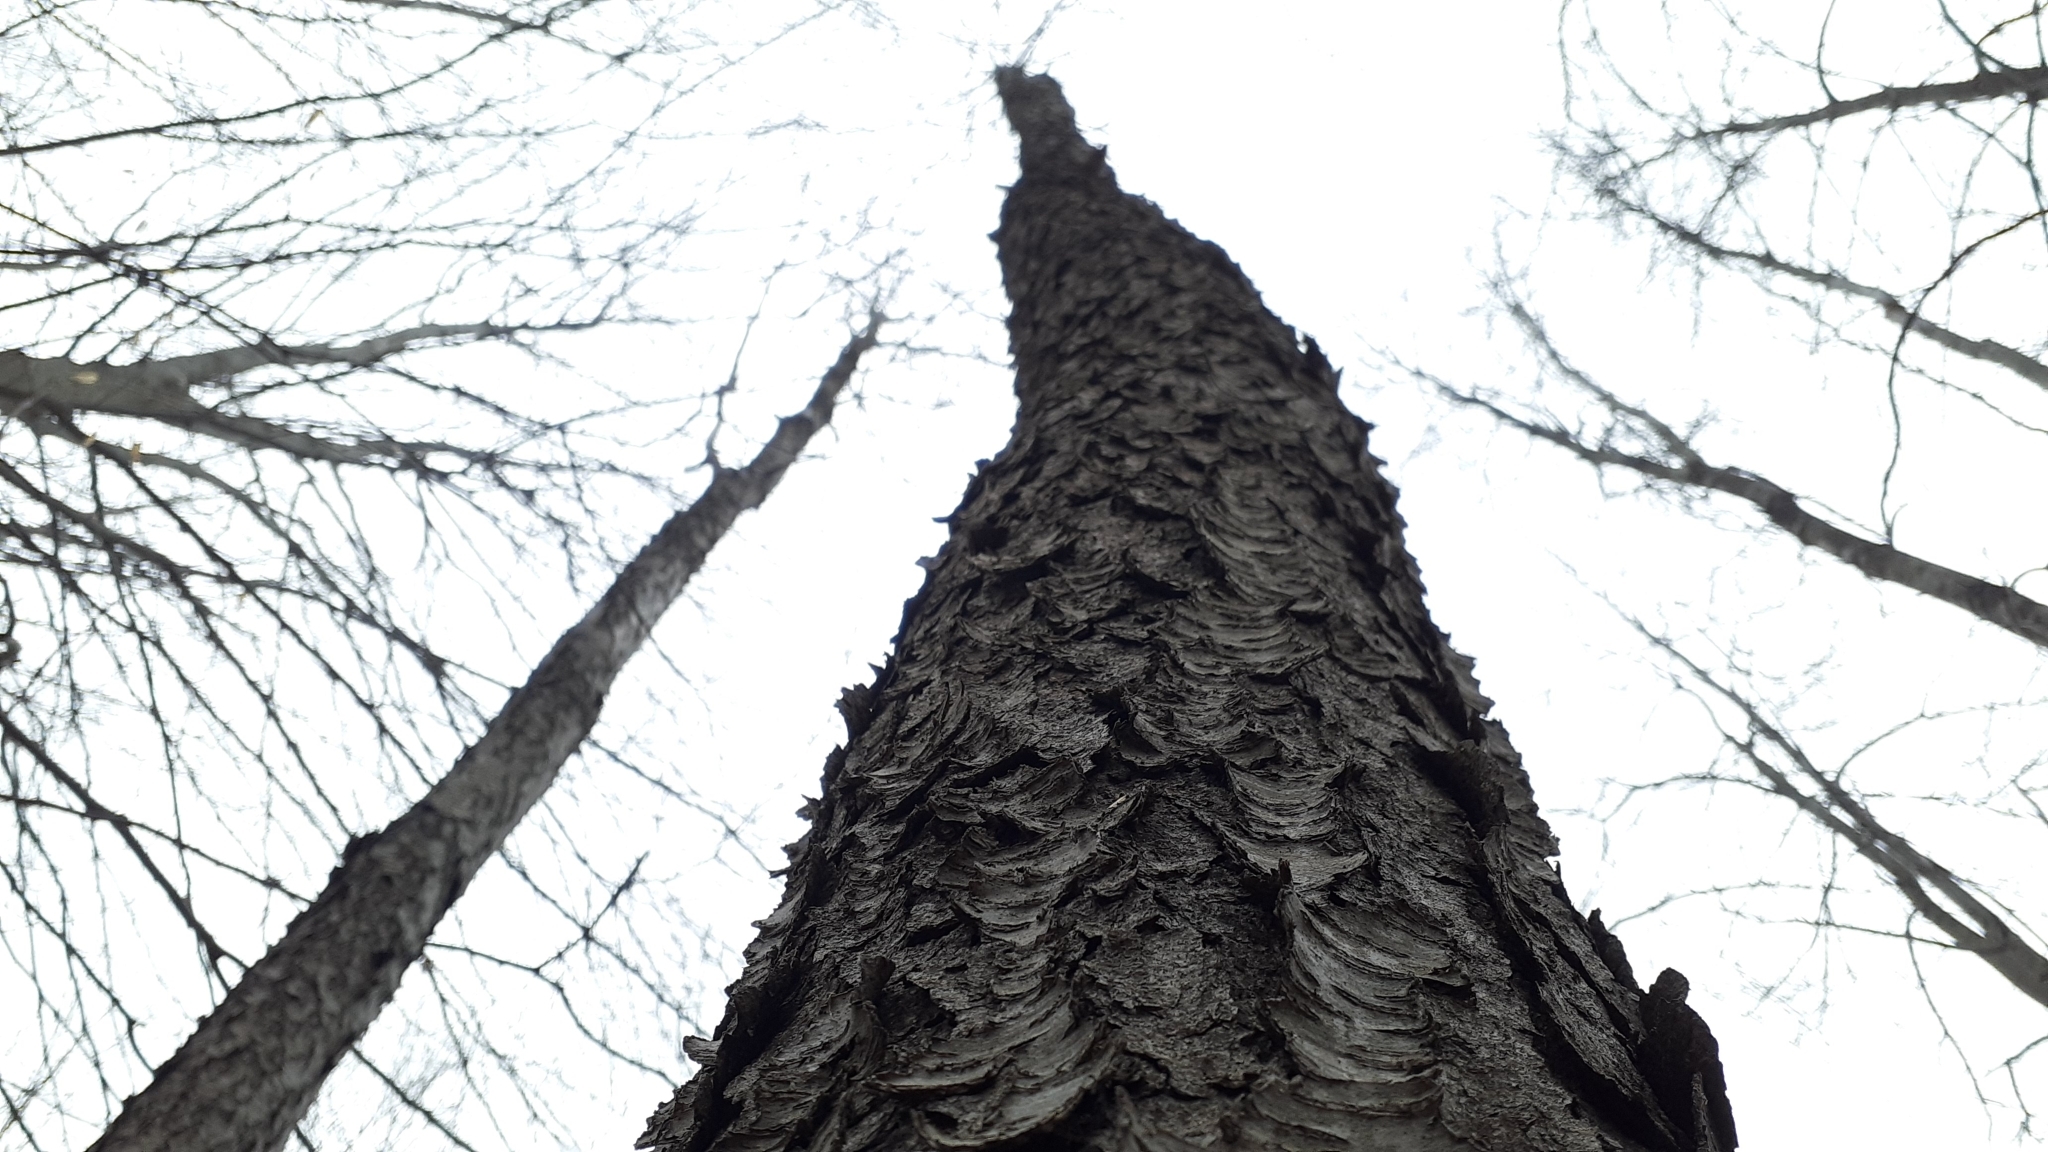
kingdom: Plantae
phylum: Tracheophyta
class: Magnoliopsida
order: Rosales
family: Rosaceae
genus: Prunus
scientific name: Prunus serotina
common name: Black cherry
